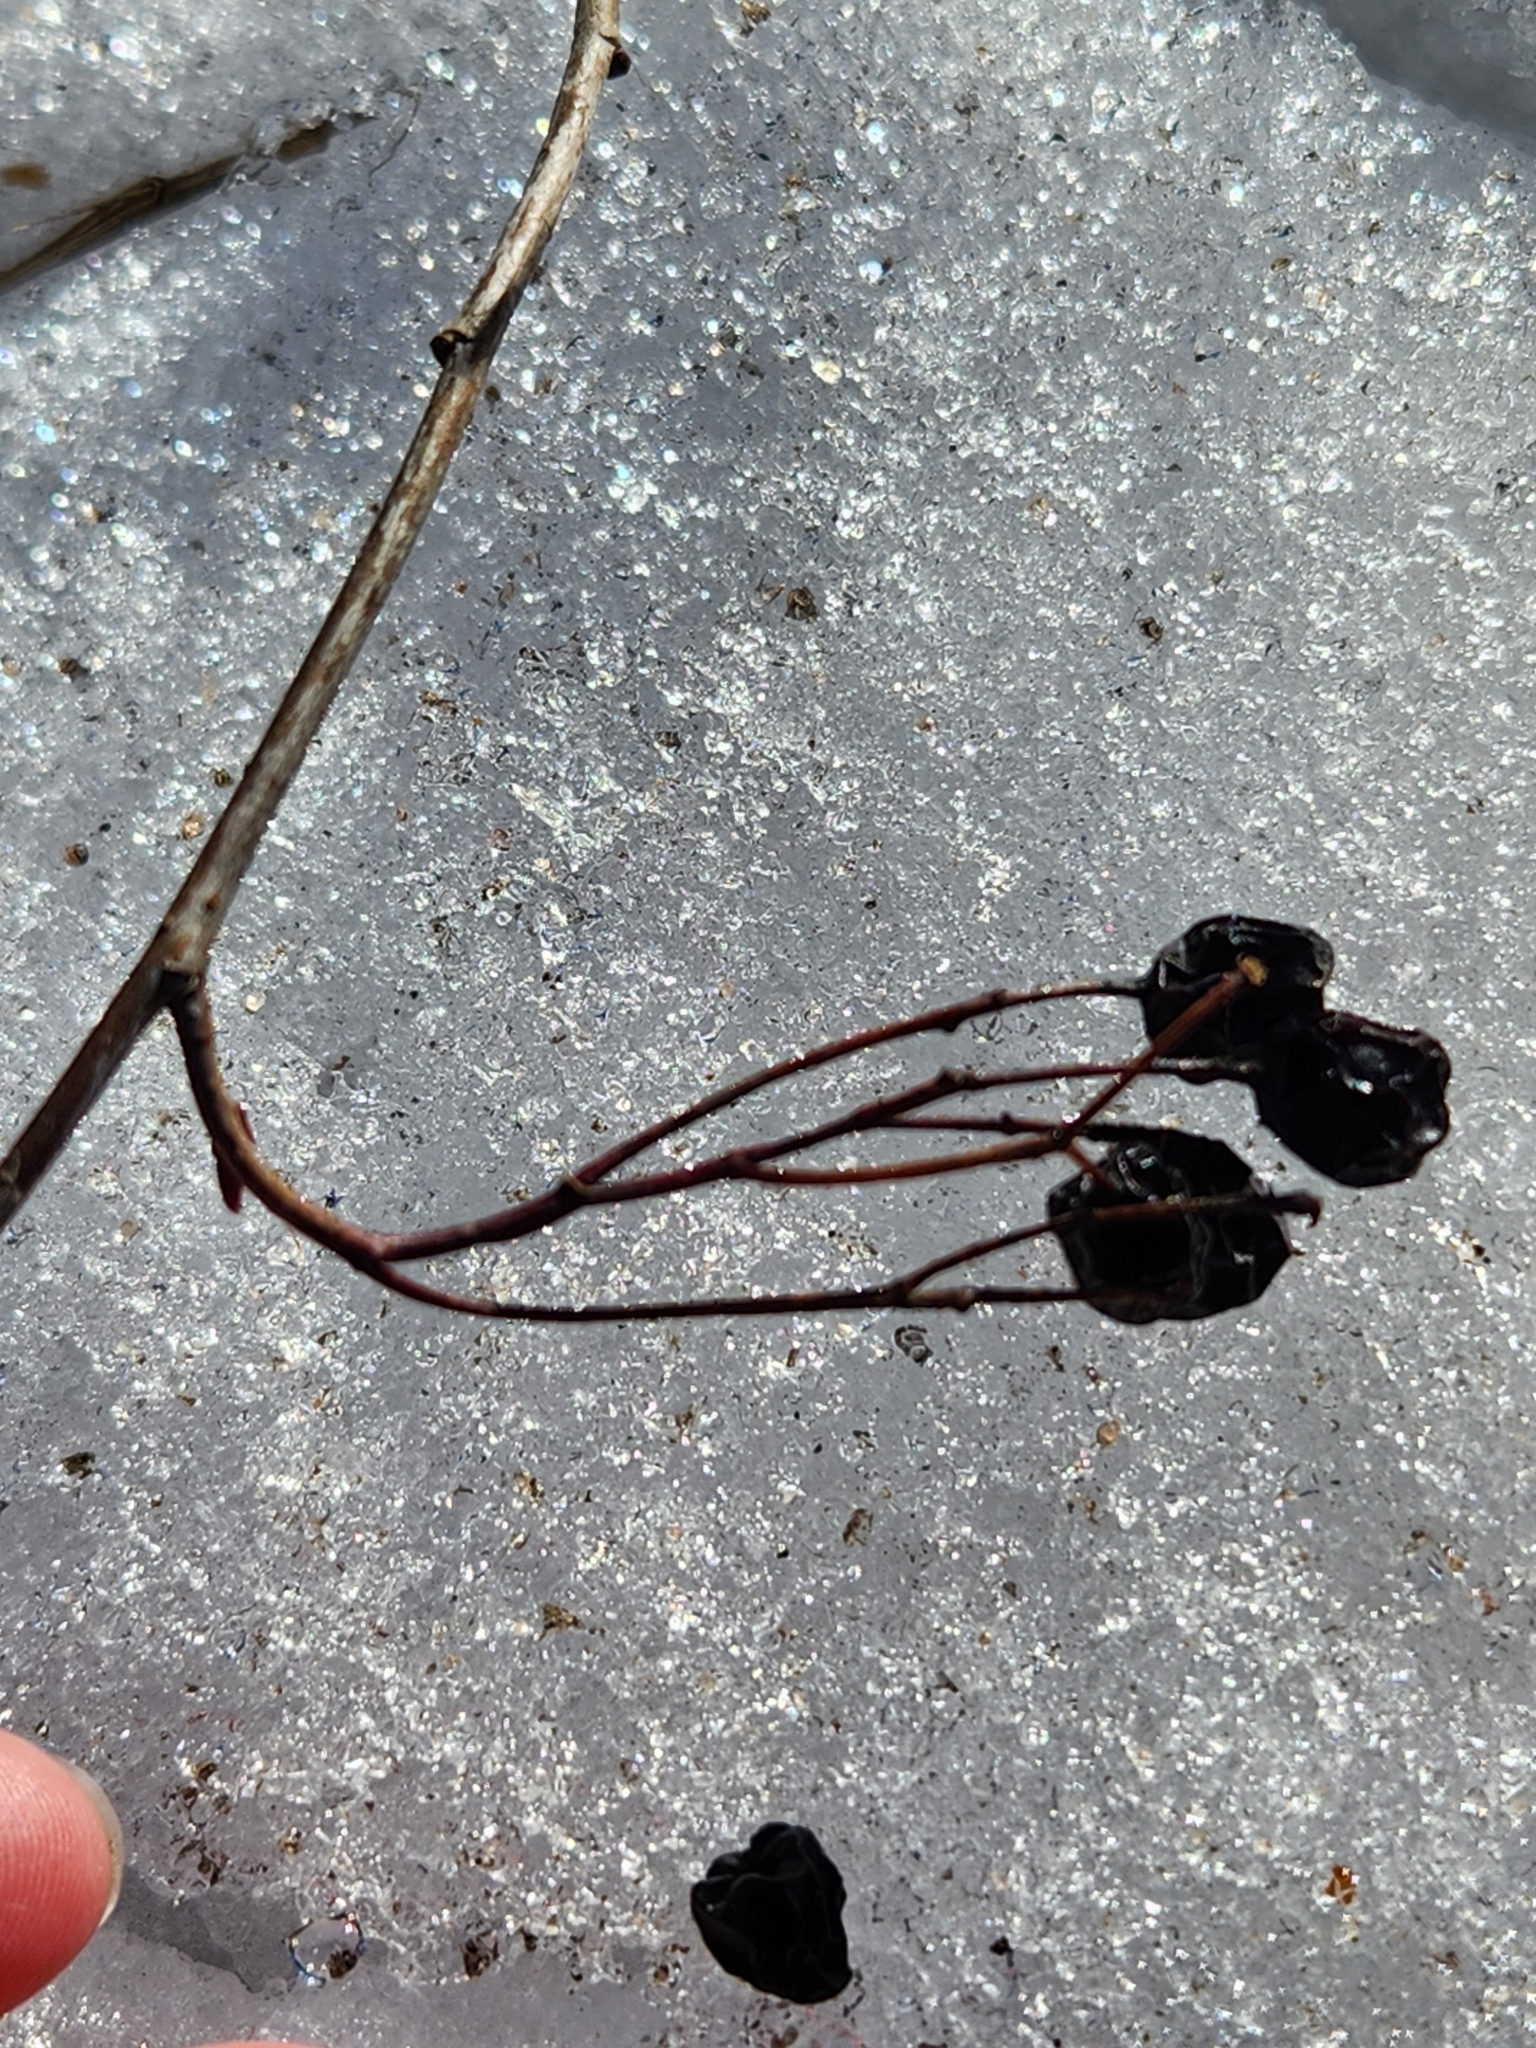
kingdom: Plantae
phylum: Tracheophyta
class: Magnoliopsida
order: Rosales
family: Rosaceae
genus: Aronia
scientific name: Aronia melanocarpa
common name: Black chokeberry
